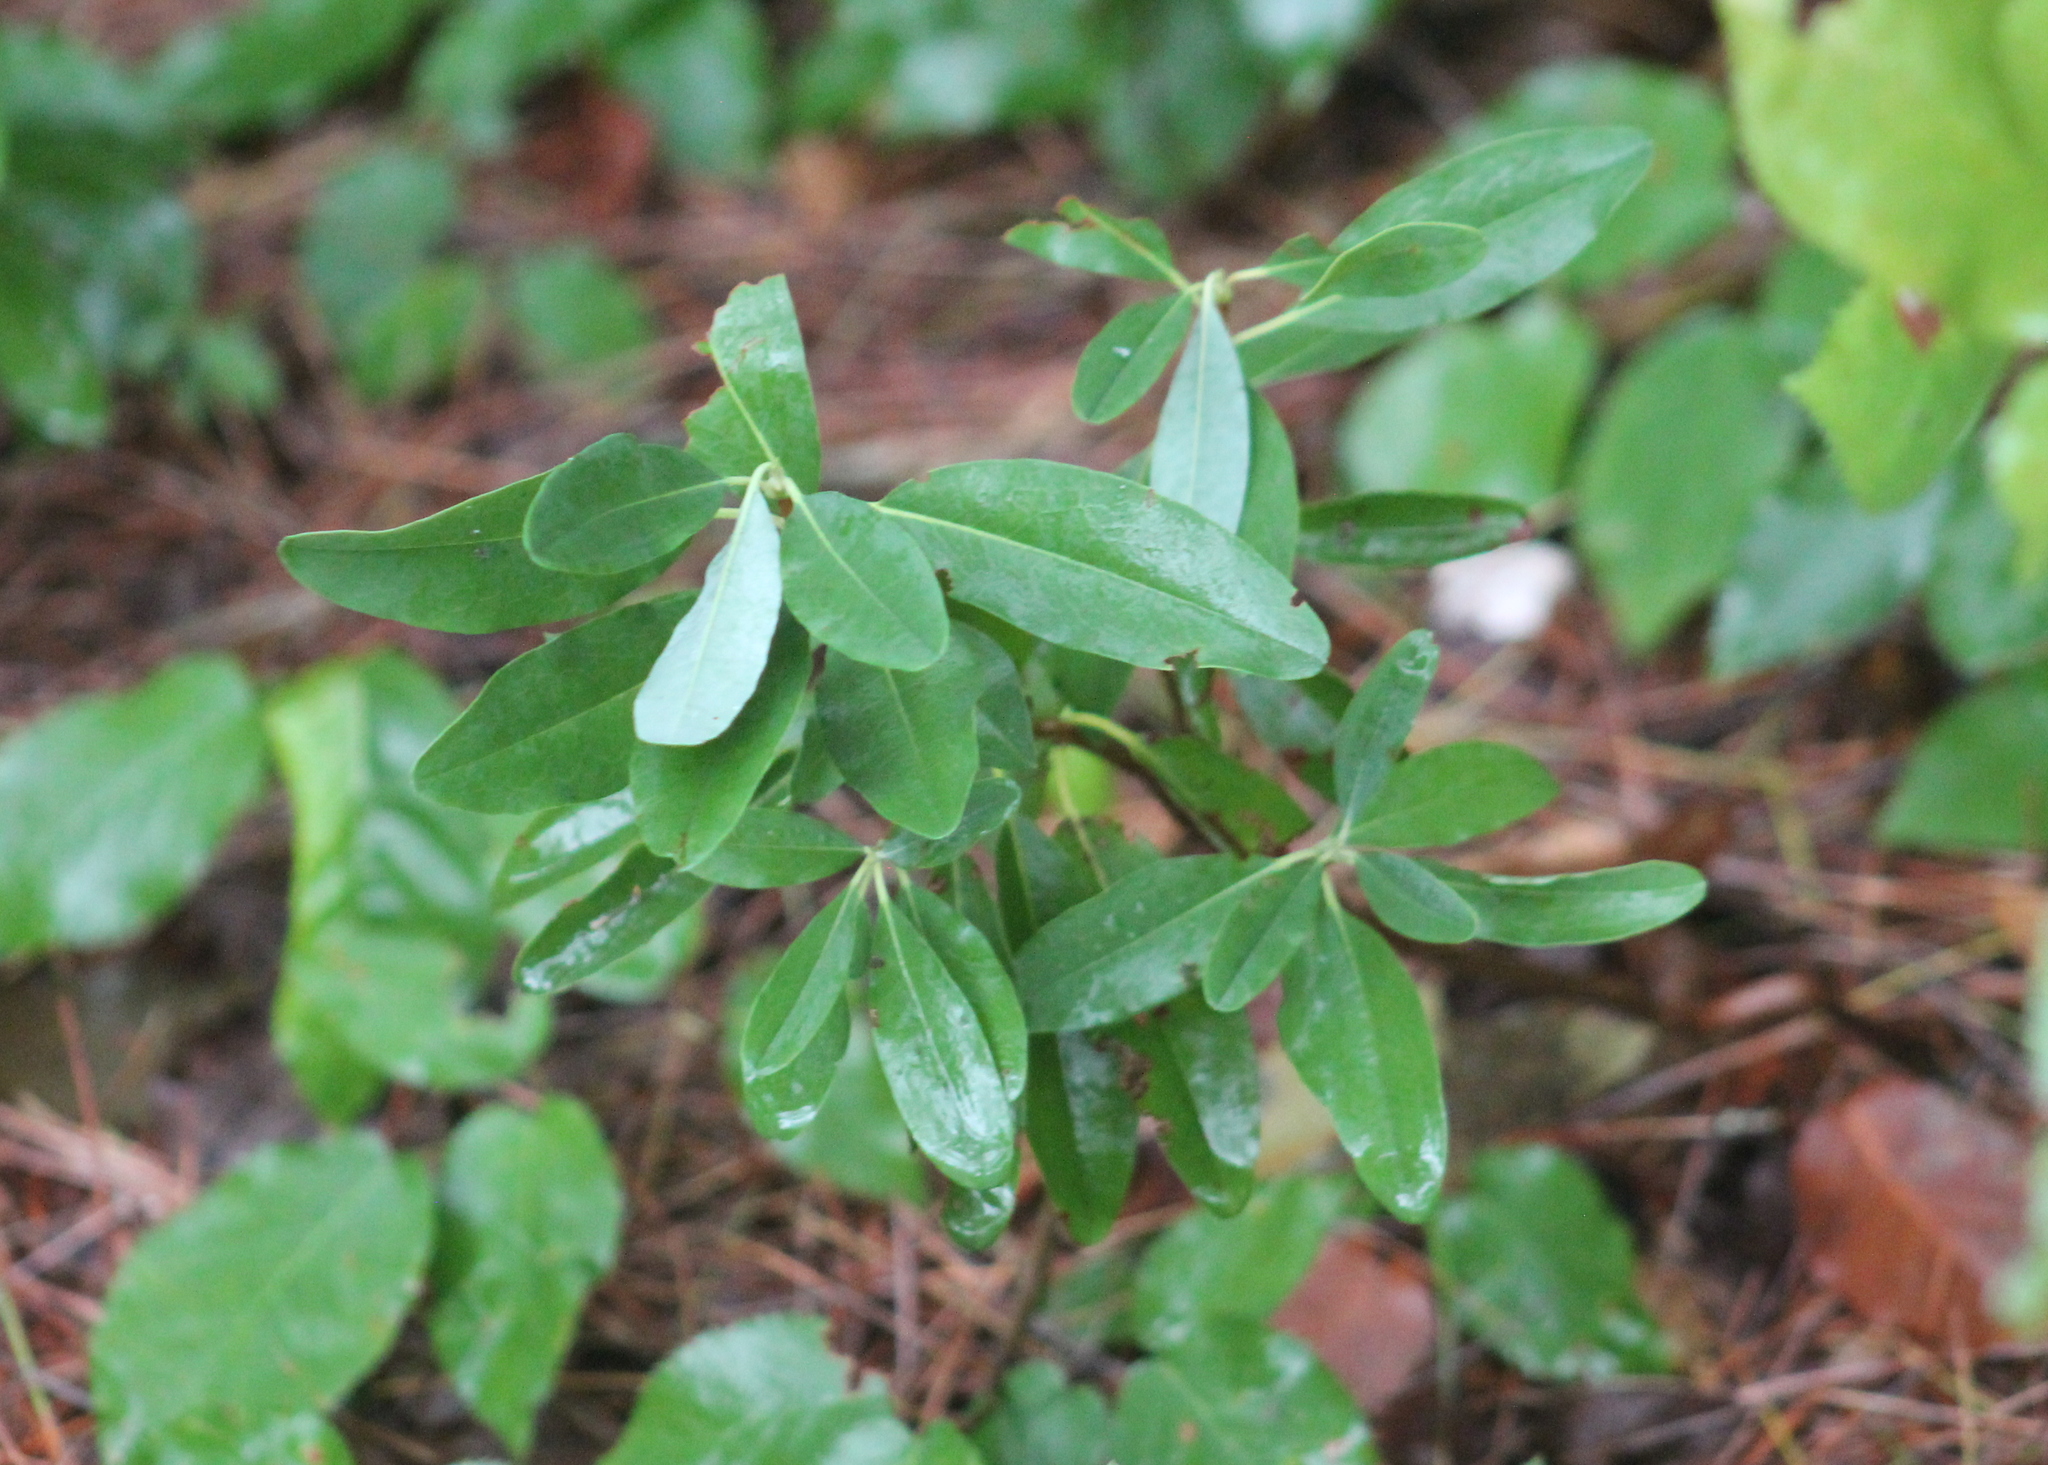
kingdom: Plantae
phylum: Tracheophyta
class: Magnoliopsida
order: Ericales
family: Ericaceae
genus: Kalmia
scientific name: Kalmia angustifolia
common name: Sheep-laurel
